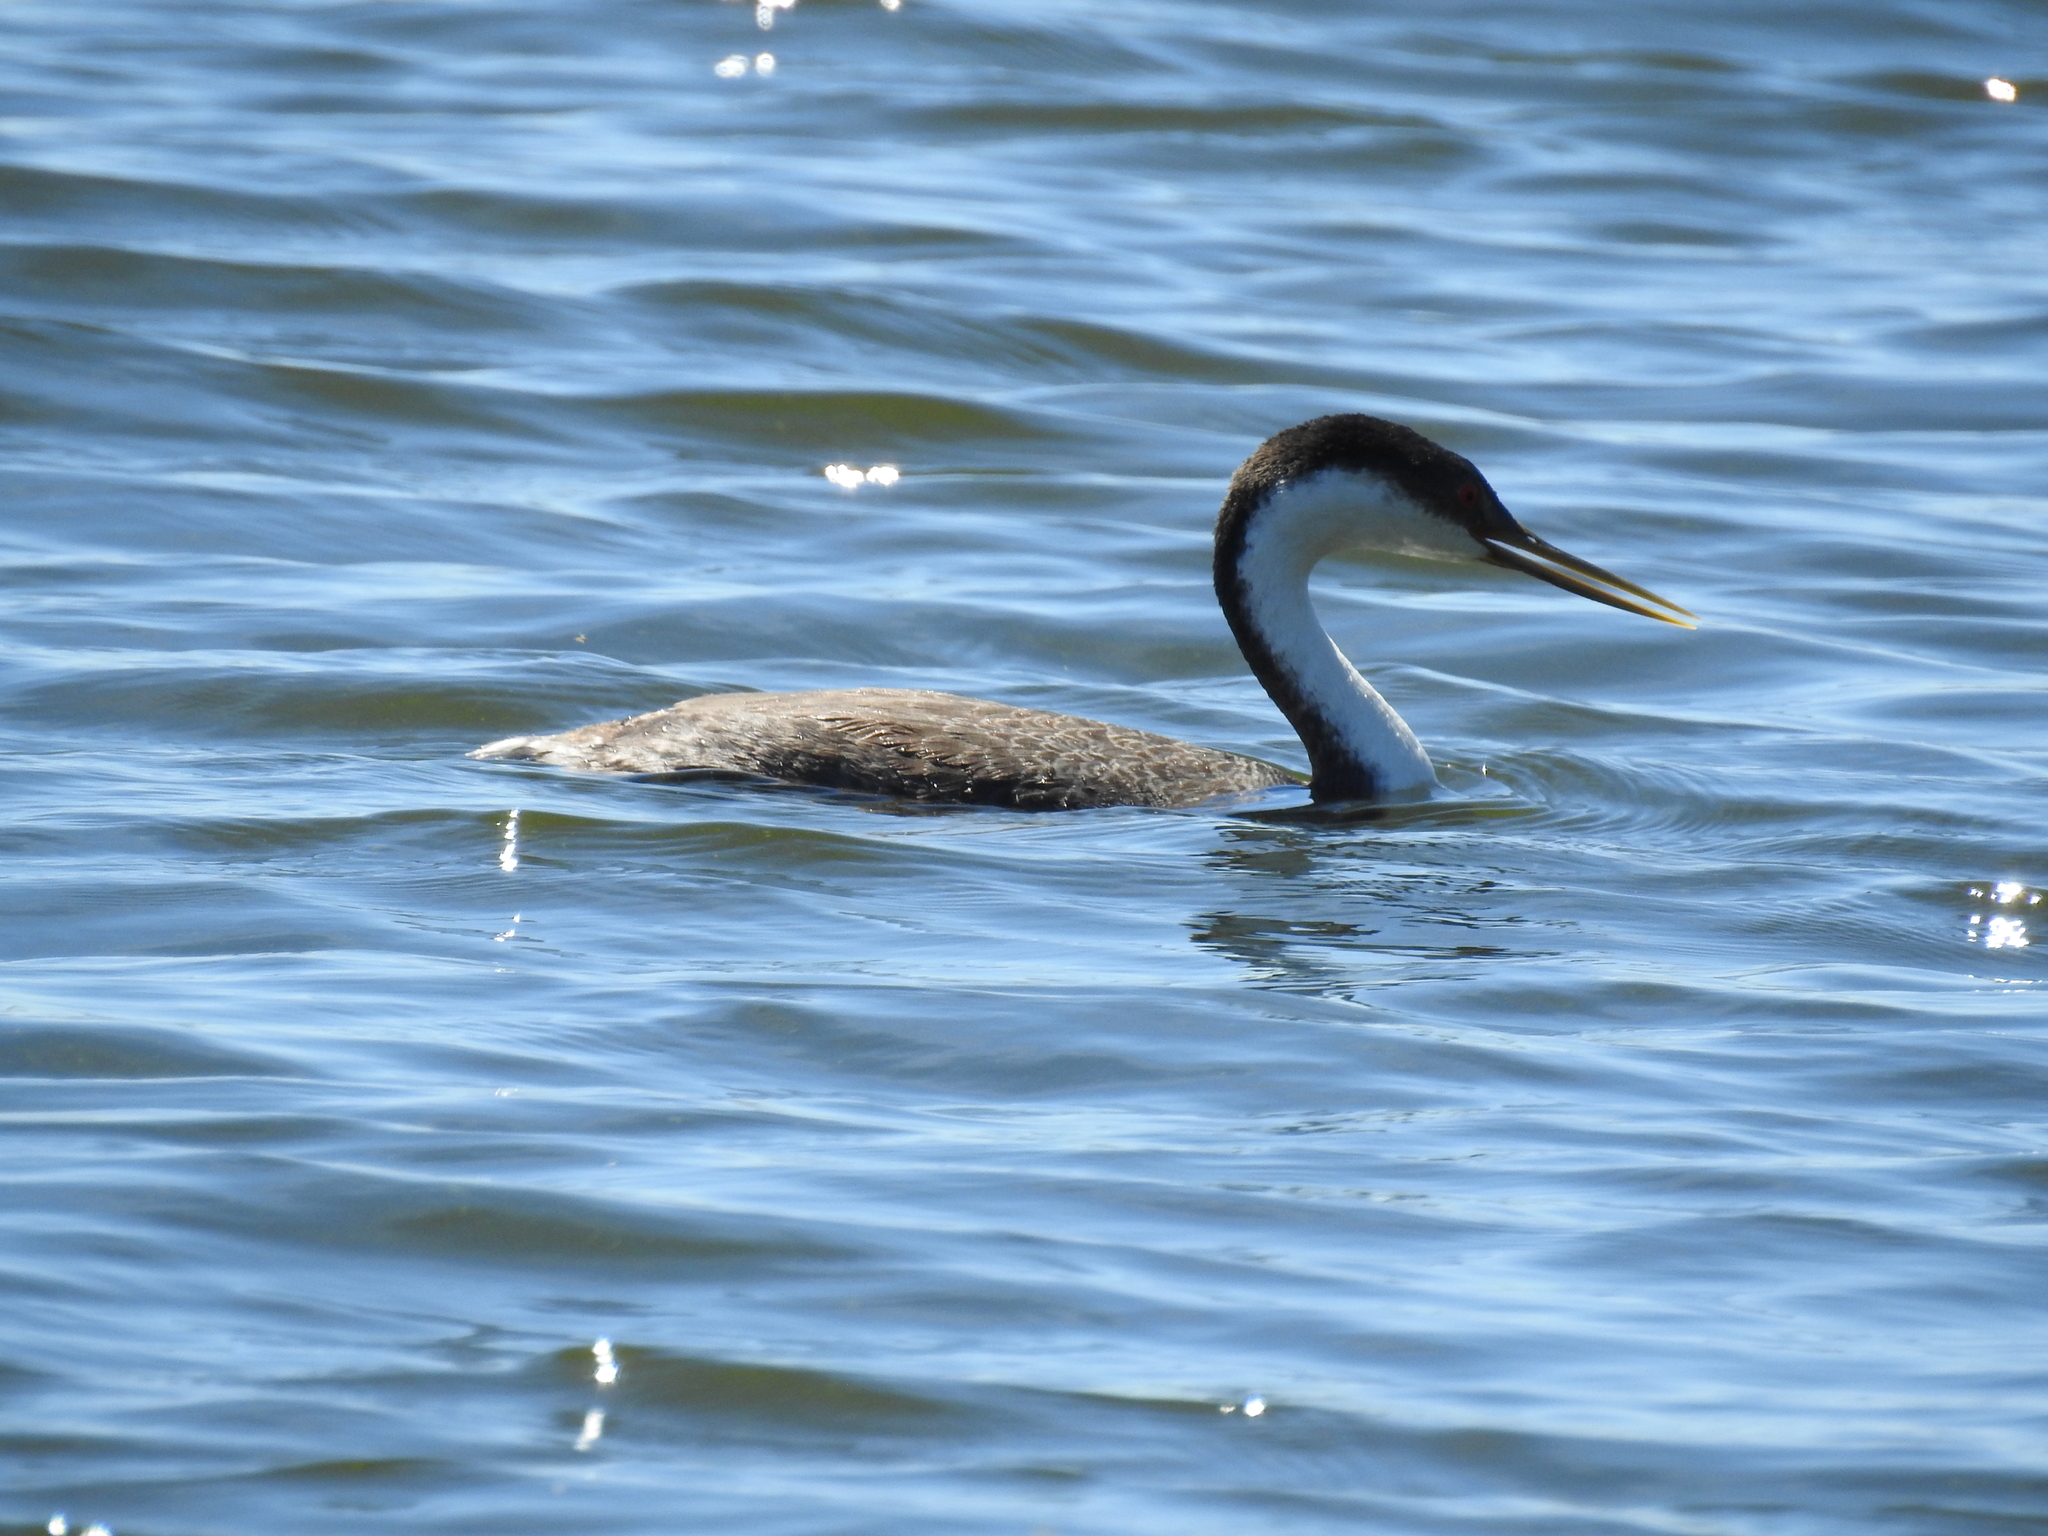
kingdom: Animalia
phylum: Chordata
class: Aves
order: Podicipediformes
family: Podicipedidae
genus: Aechmophorus
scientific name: Aechmophorus occidentalis
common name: Western grebe
